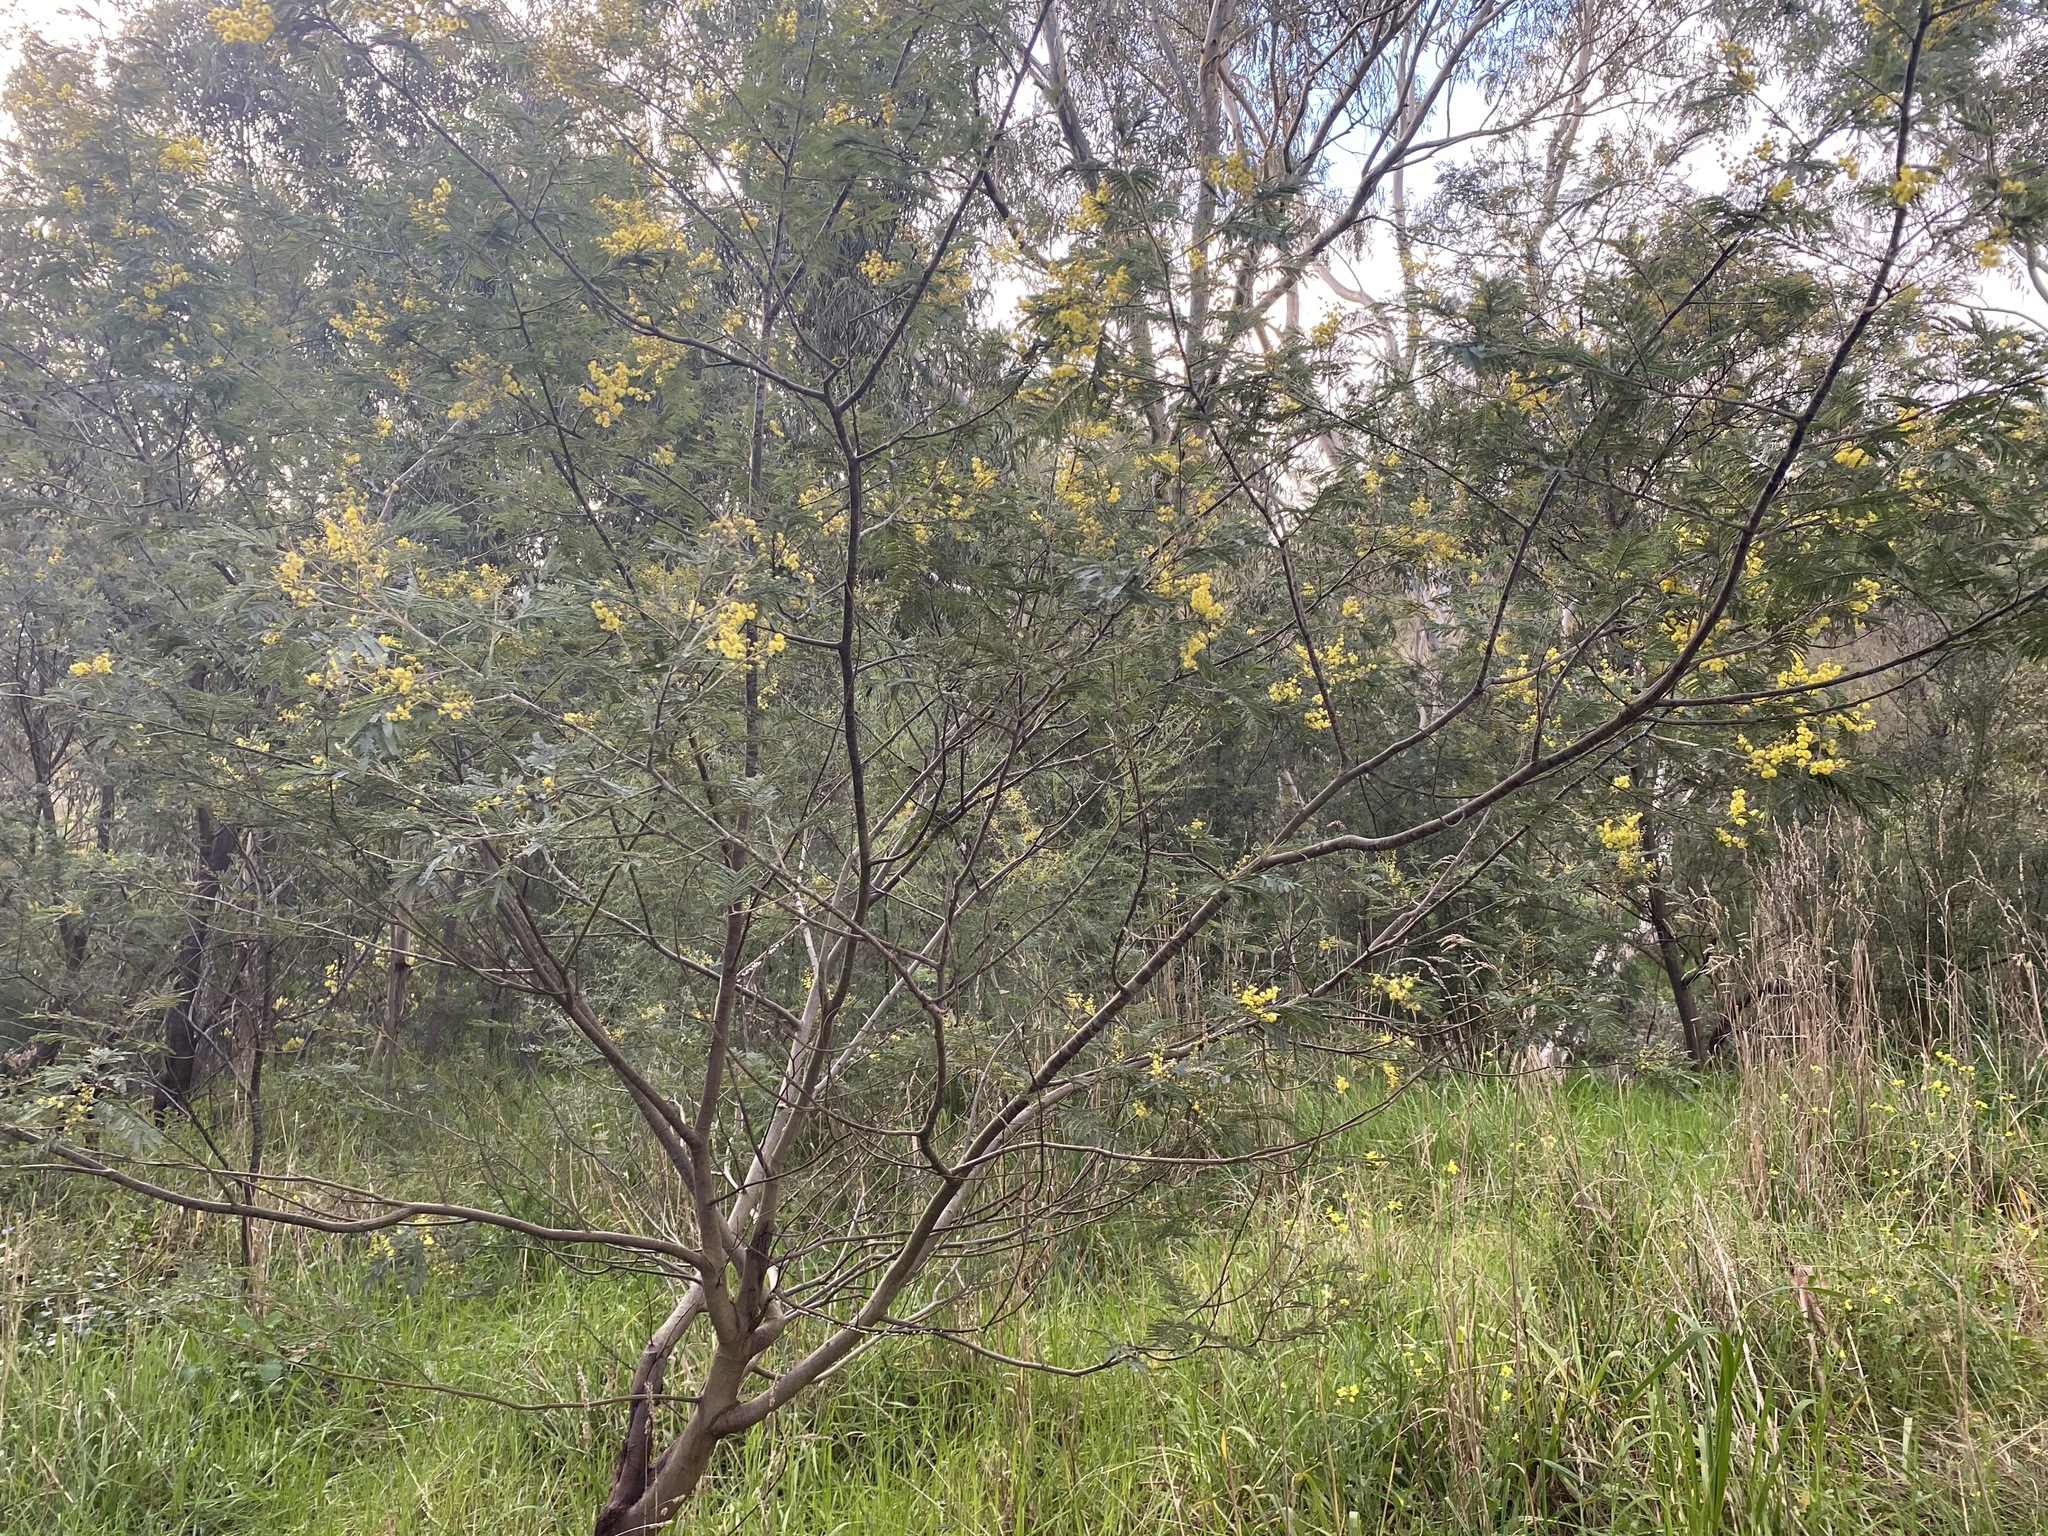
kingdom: Plantae
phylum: Tracheophyta
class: Magnoliopsida
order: Fabales
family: Fabaceae
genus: Acacia
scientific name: Acacia dealbata
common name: Silver wattle
